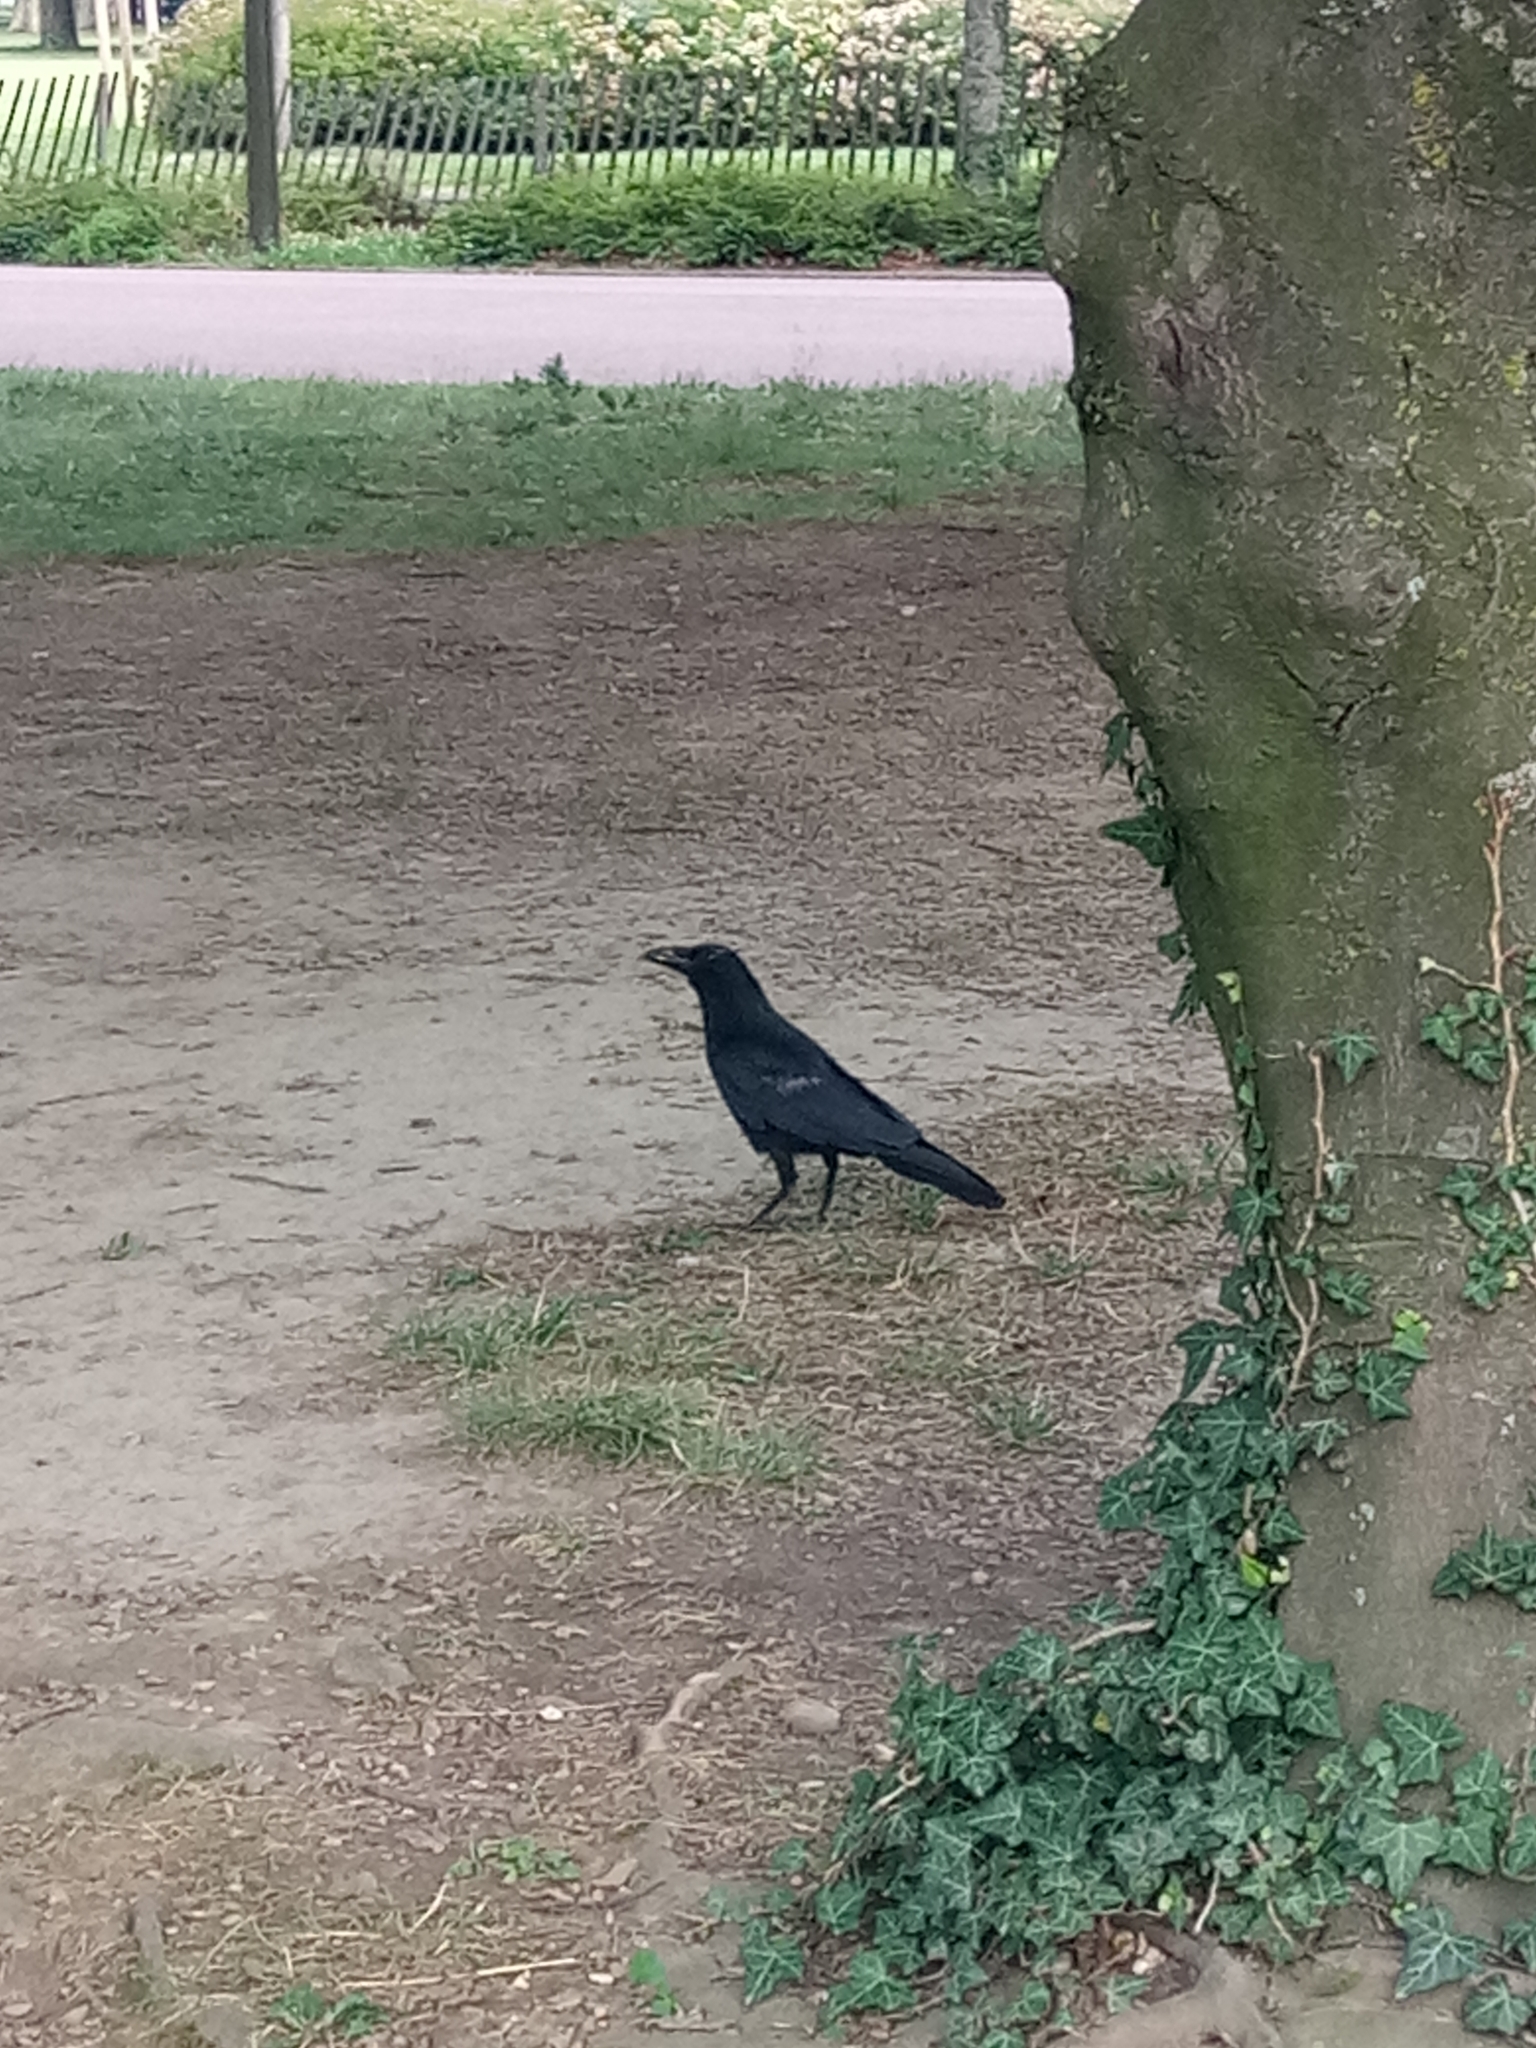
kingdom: Animalia
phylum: Chordata
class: Aves
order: Passeriformes
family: Corvidae
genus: Corvus
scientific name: Corvus corone
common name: Carrion crow
